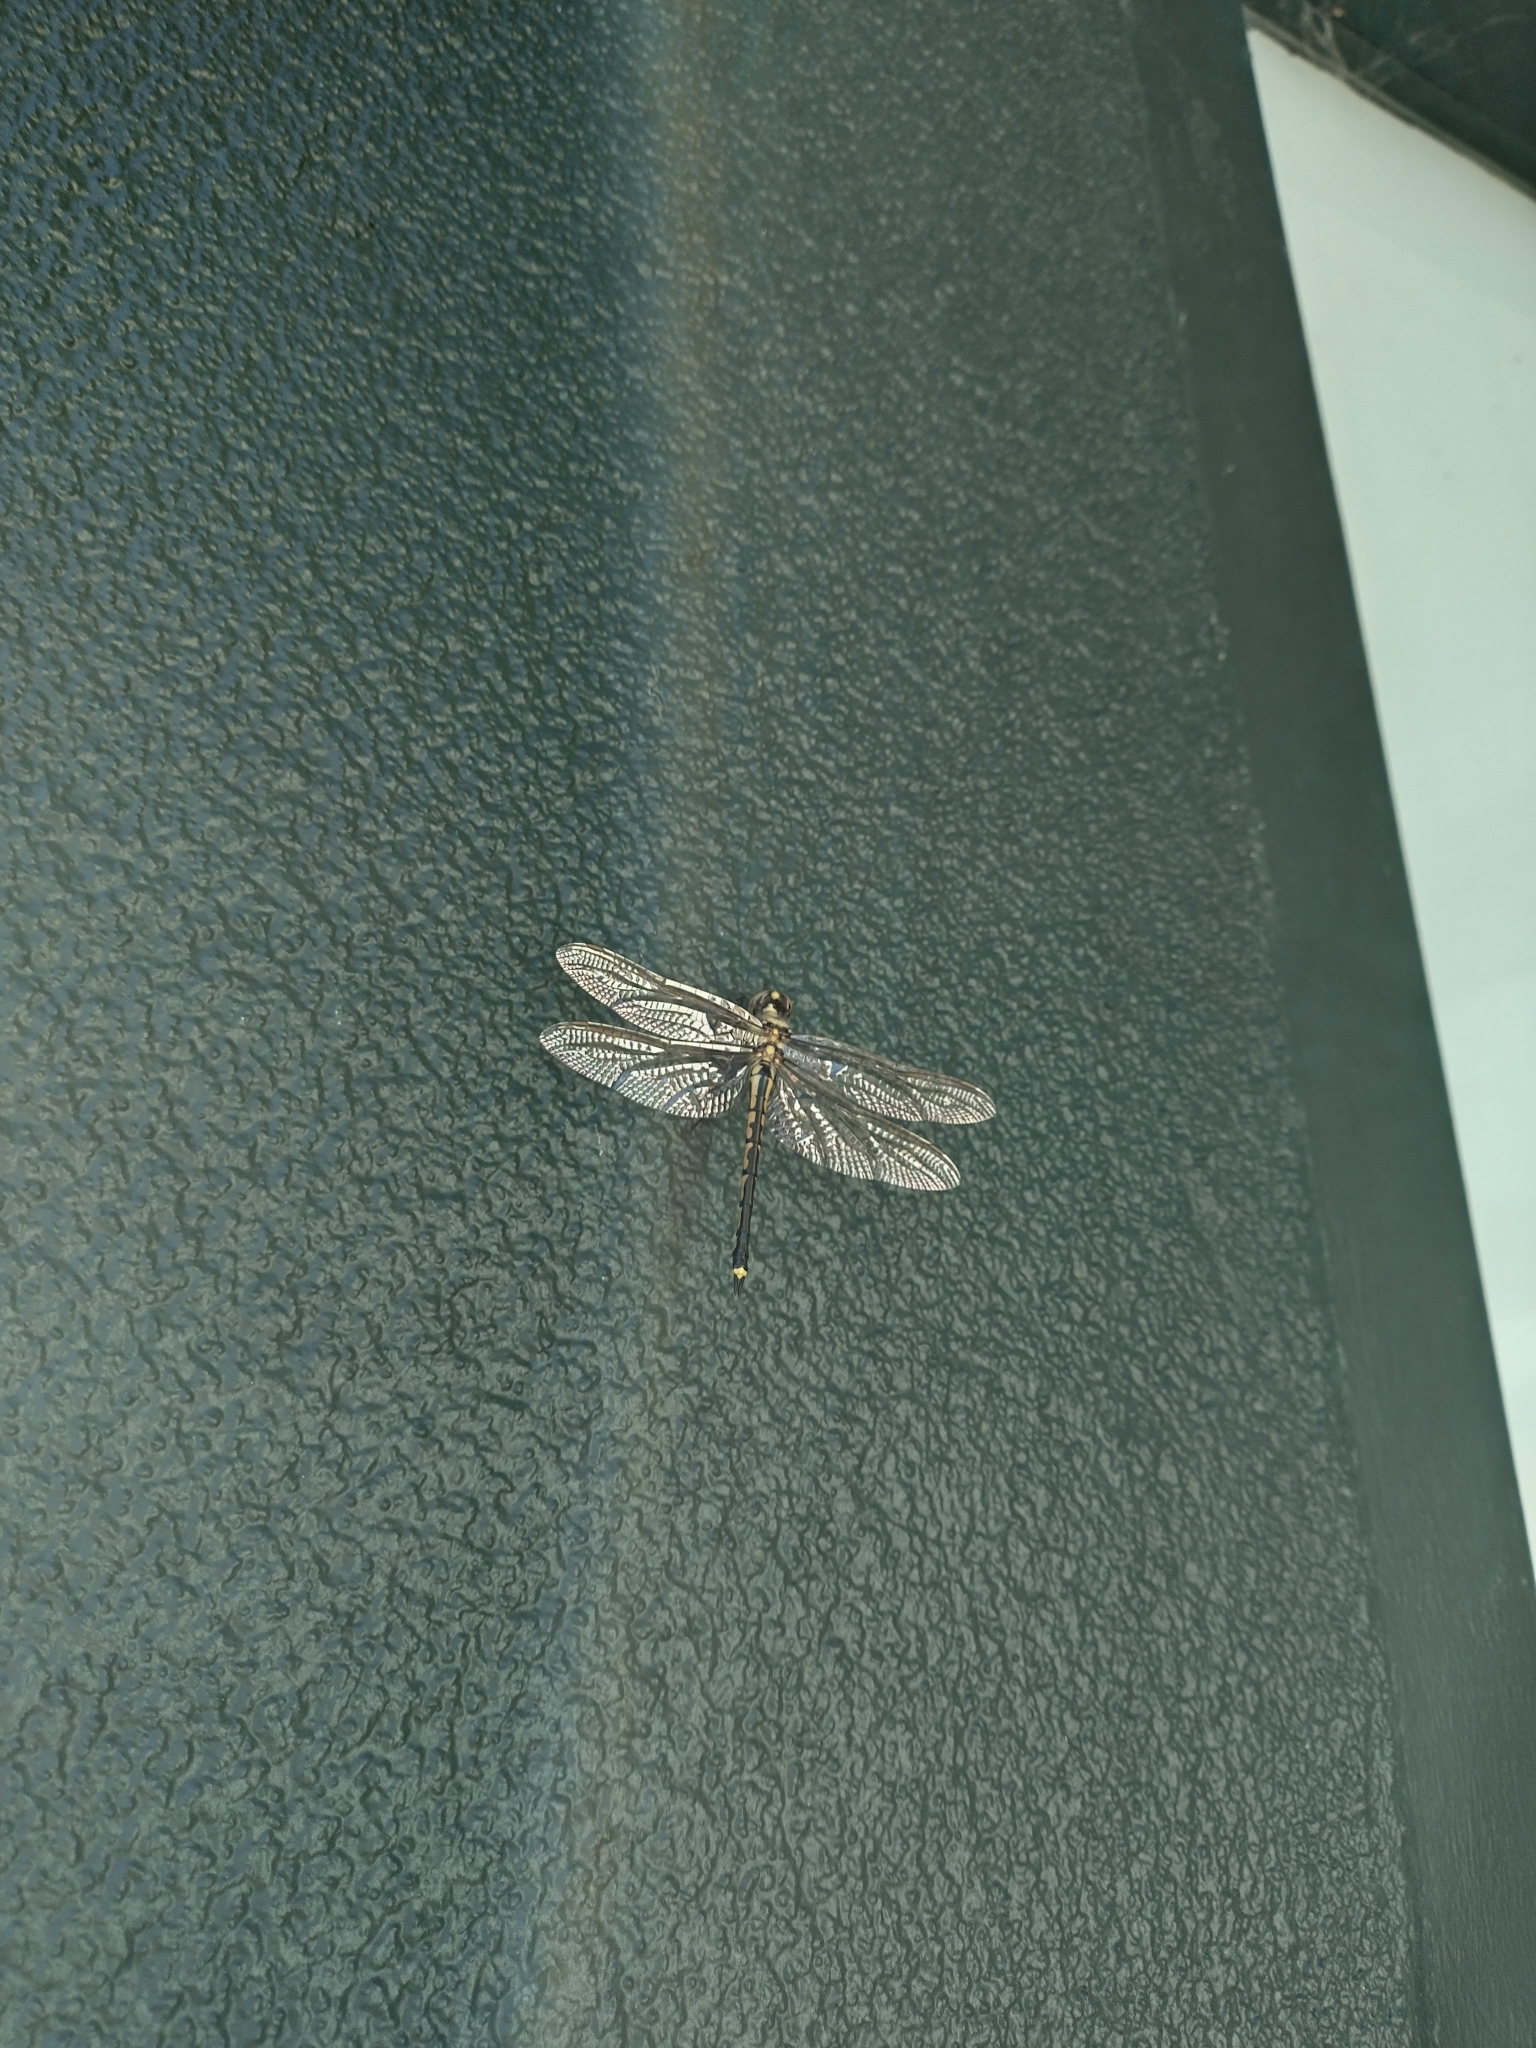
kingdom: Animalia
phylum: Arthropoda
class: Insecta
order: Odonata
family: Corduliidae
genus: Hemicordulia
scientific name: Hemicordulia tau
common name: Tau emerald
